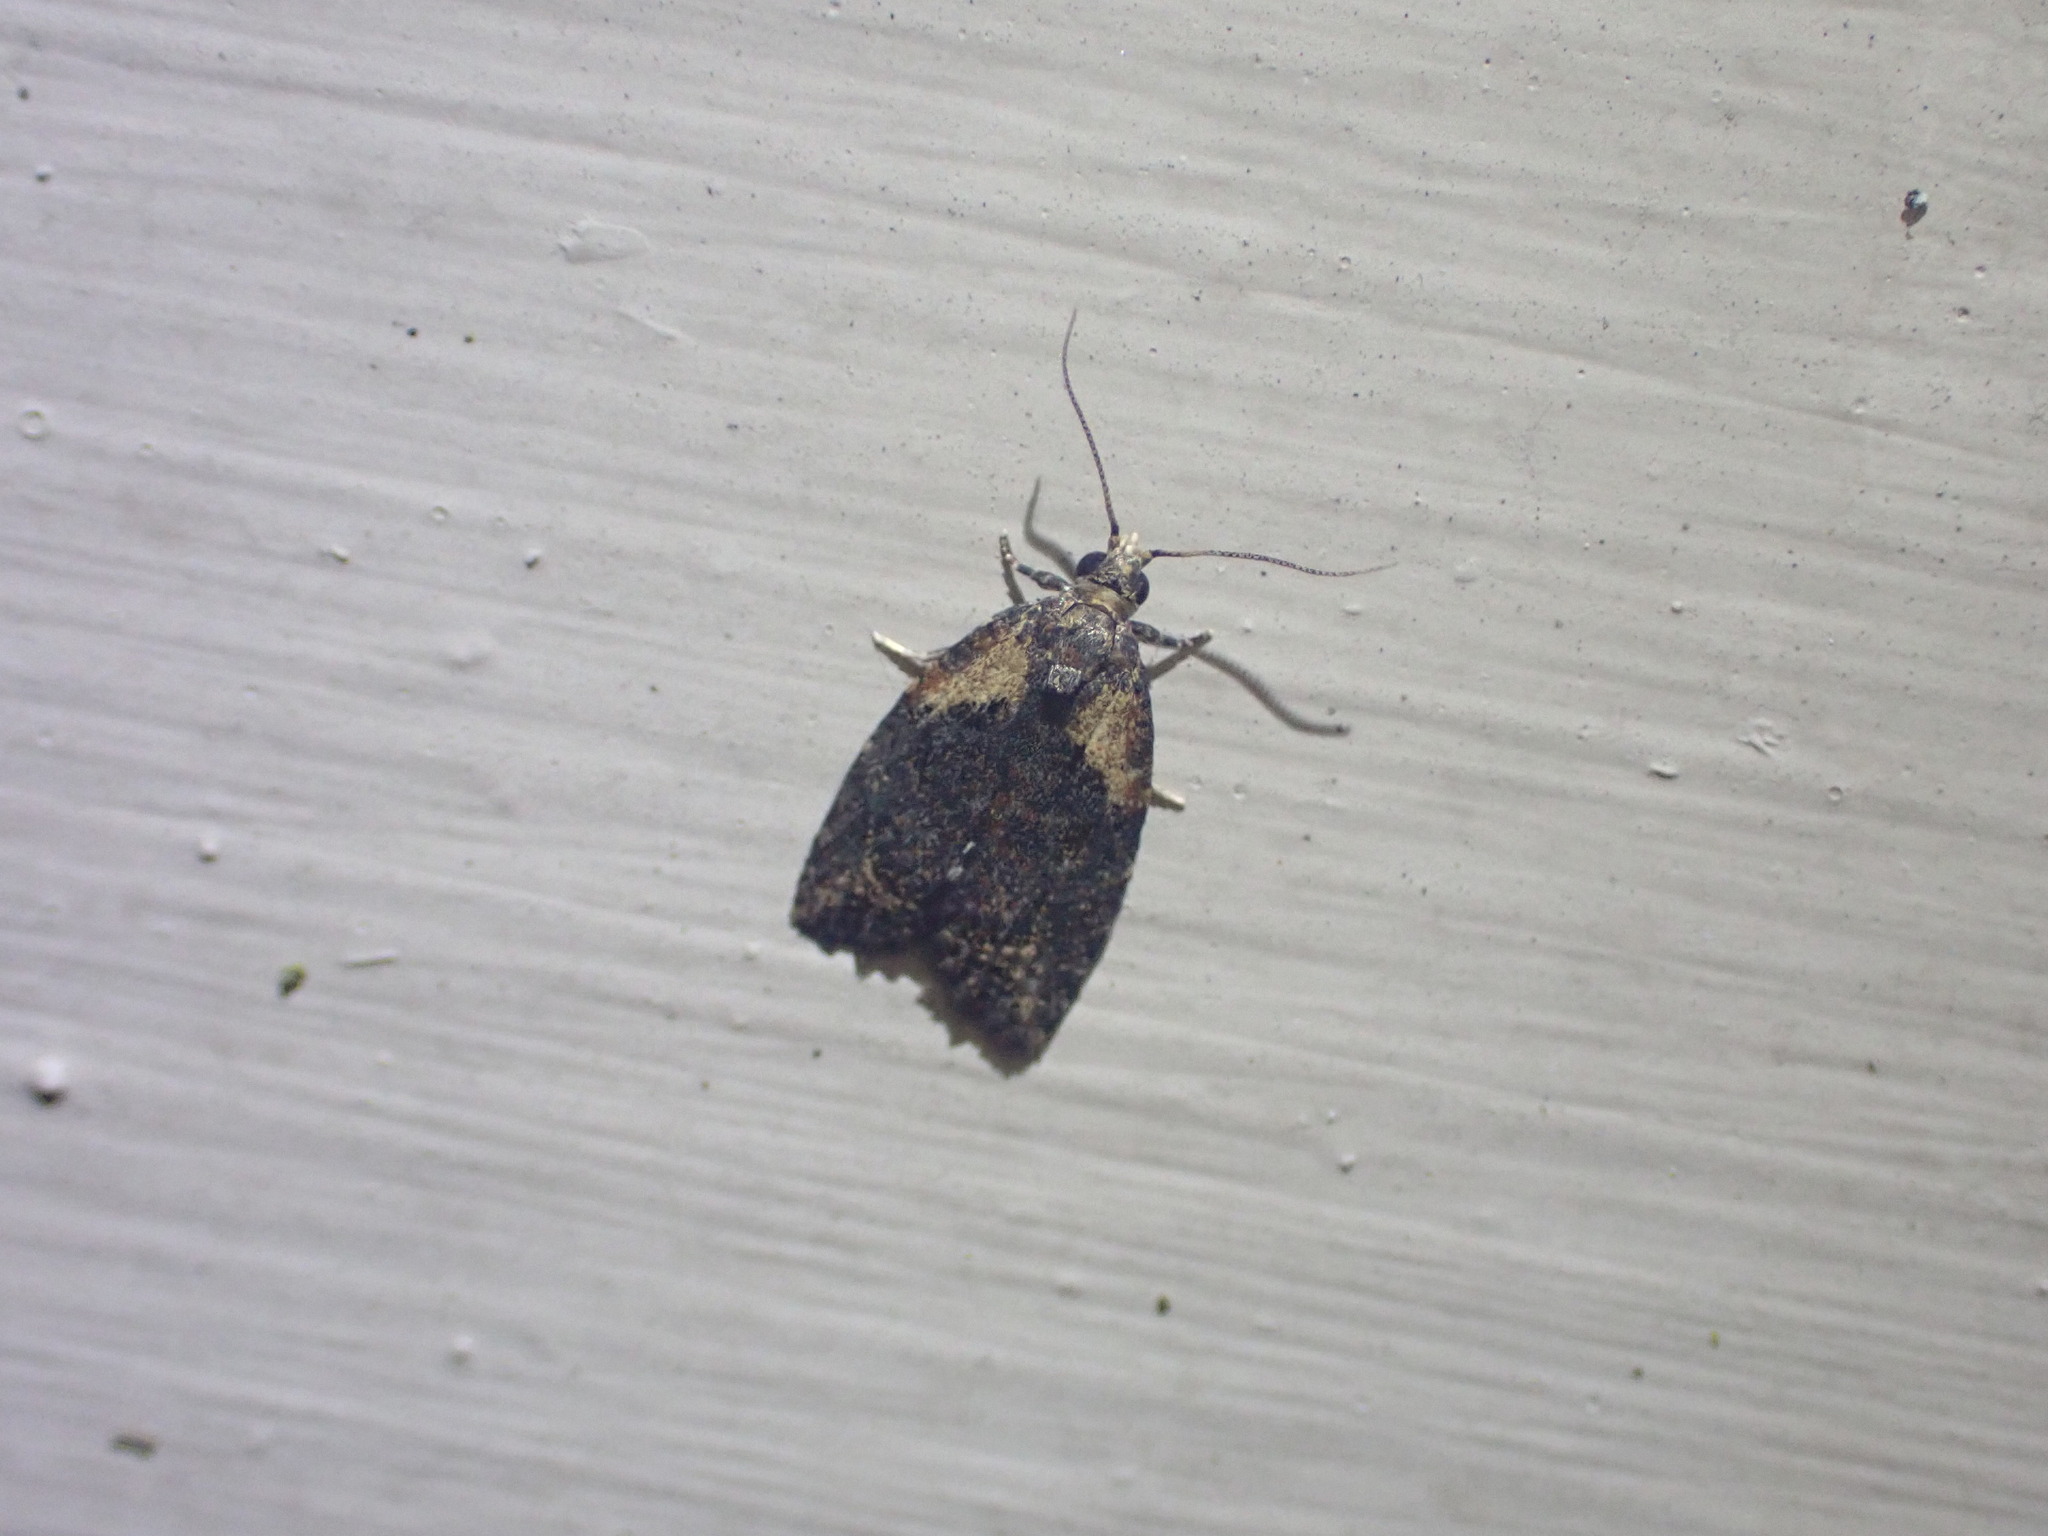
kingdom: Animalia
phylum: Arthropoda
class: Insecta
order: Lepidoptera
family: Tortricidae
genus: Capua
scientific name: Capua intractana
